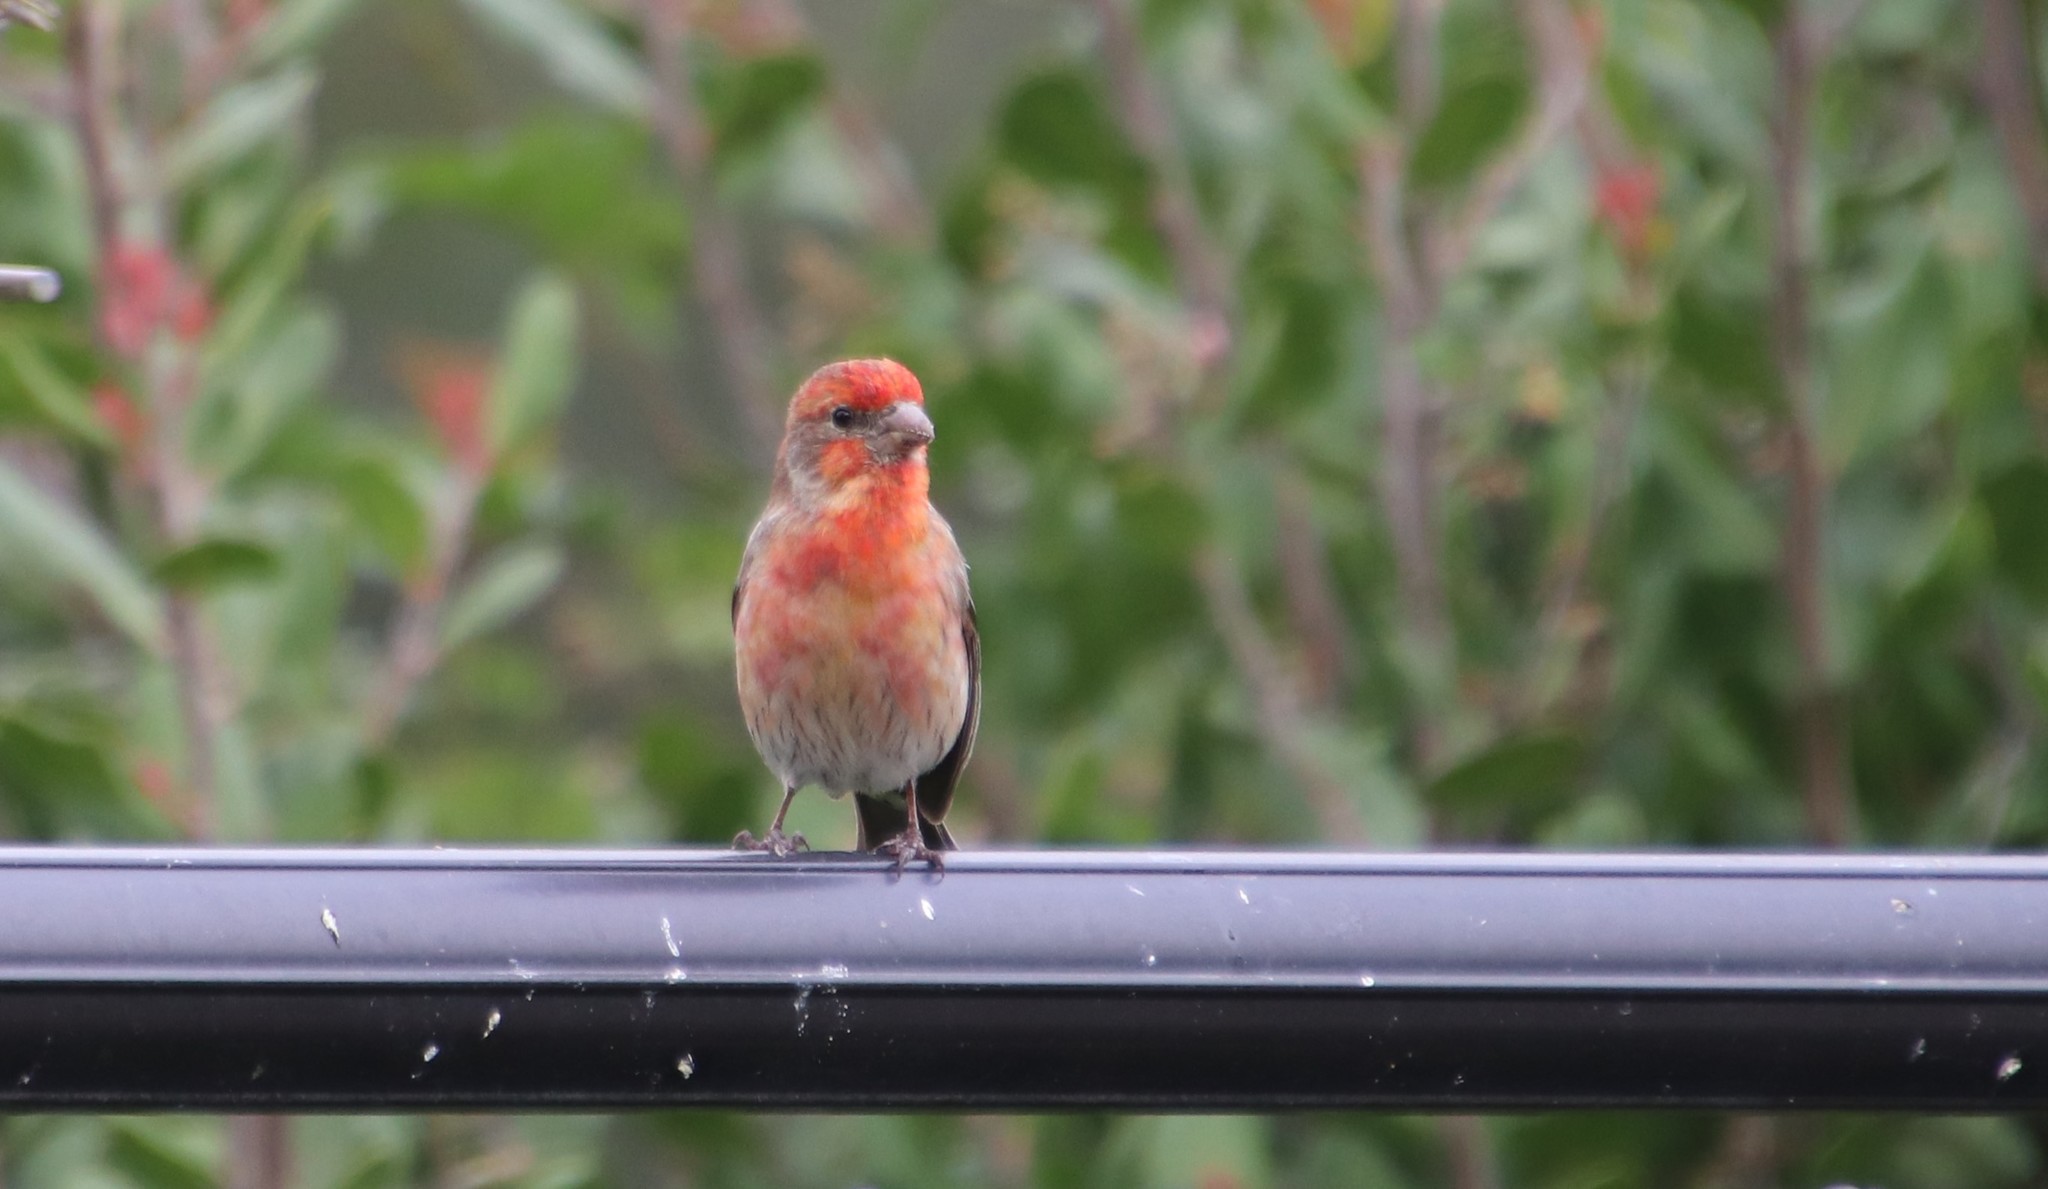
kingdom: Animalia
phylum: Chordata
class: Aves
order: Passeriformes
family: Fringillidae
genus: Haemorhous
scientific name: Haemorhous mexicanus
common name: House finch
